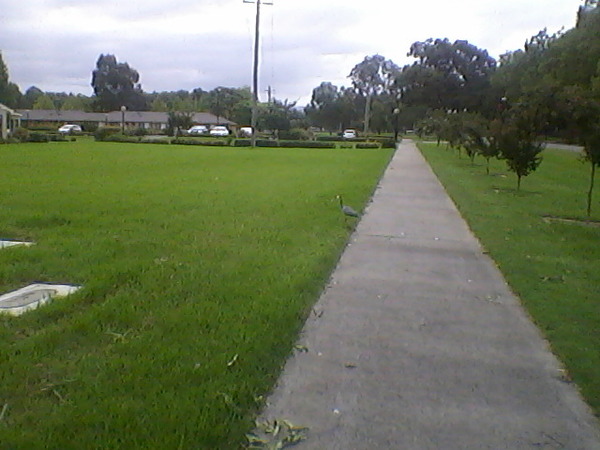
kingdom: Animalia
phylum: Chordata
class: Aves
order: Pelecaniformes
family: Ardeidae
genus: Egretta
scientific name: Egretta novaehollandiae
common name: White-faced heron
